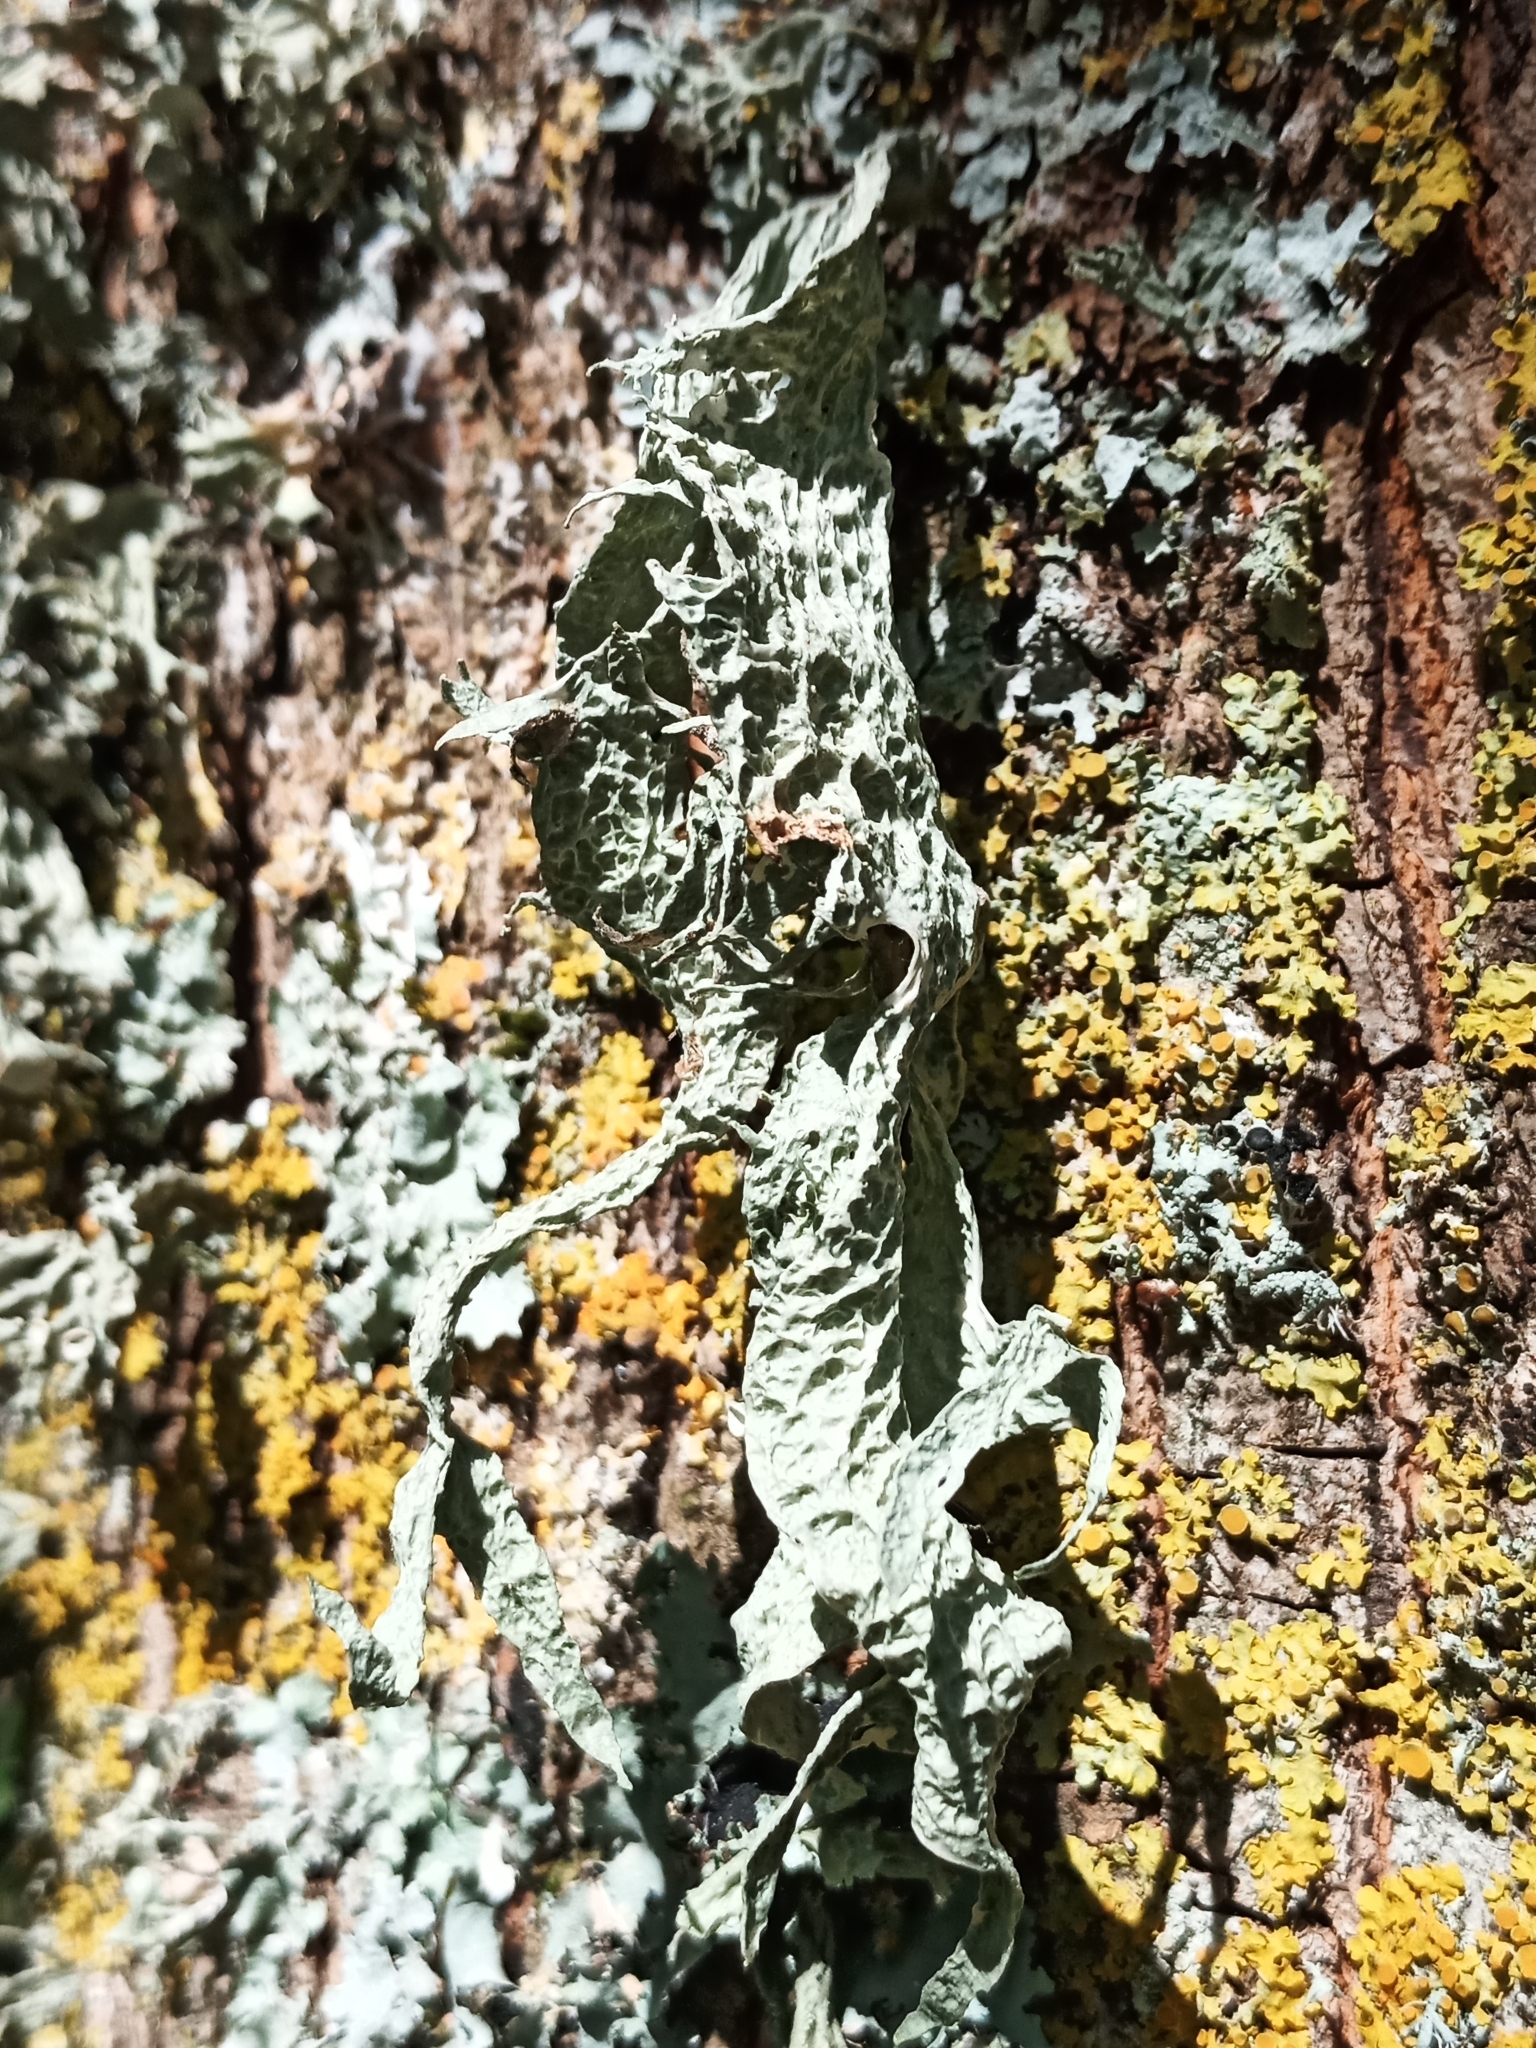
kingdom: Fungi
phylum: Ascomycota
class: Lecanoromycetes
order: Lecanorales
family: Ramalinaceae
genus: Ramalina
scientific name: Ramalina fraxinea
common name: Cartilage lichen
